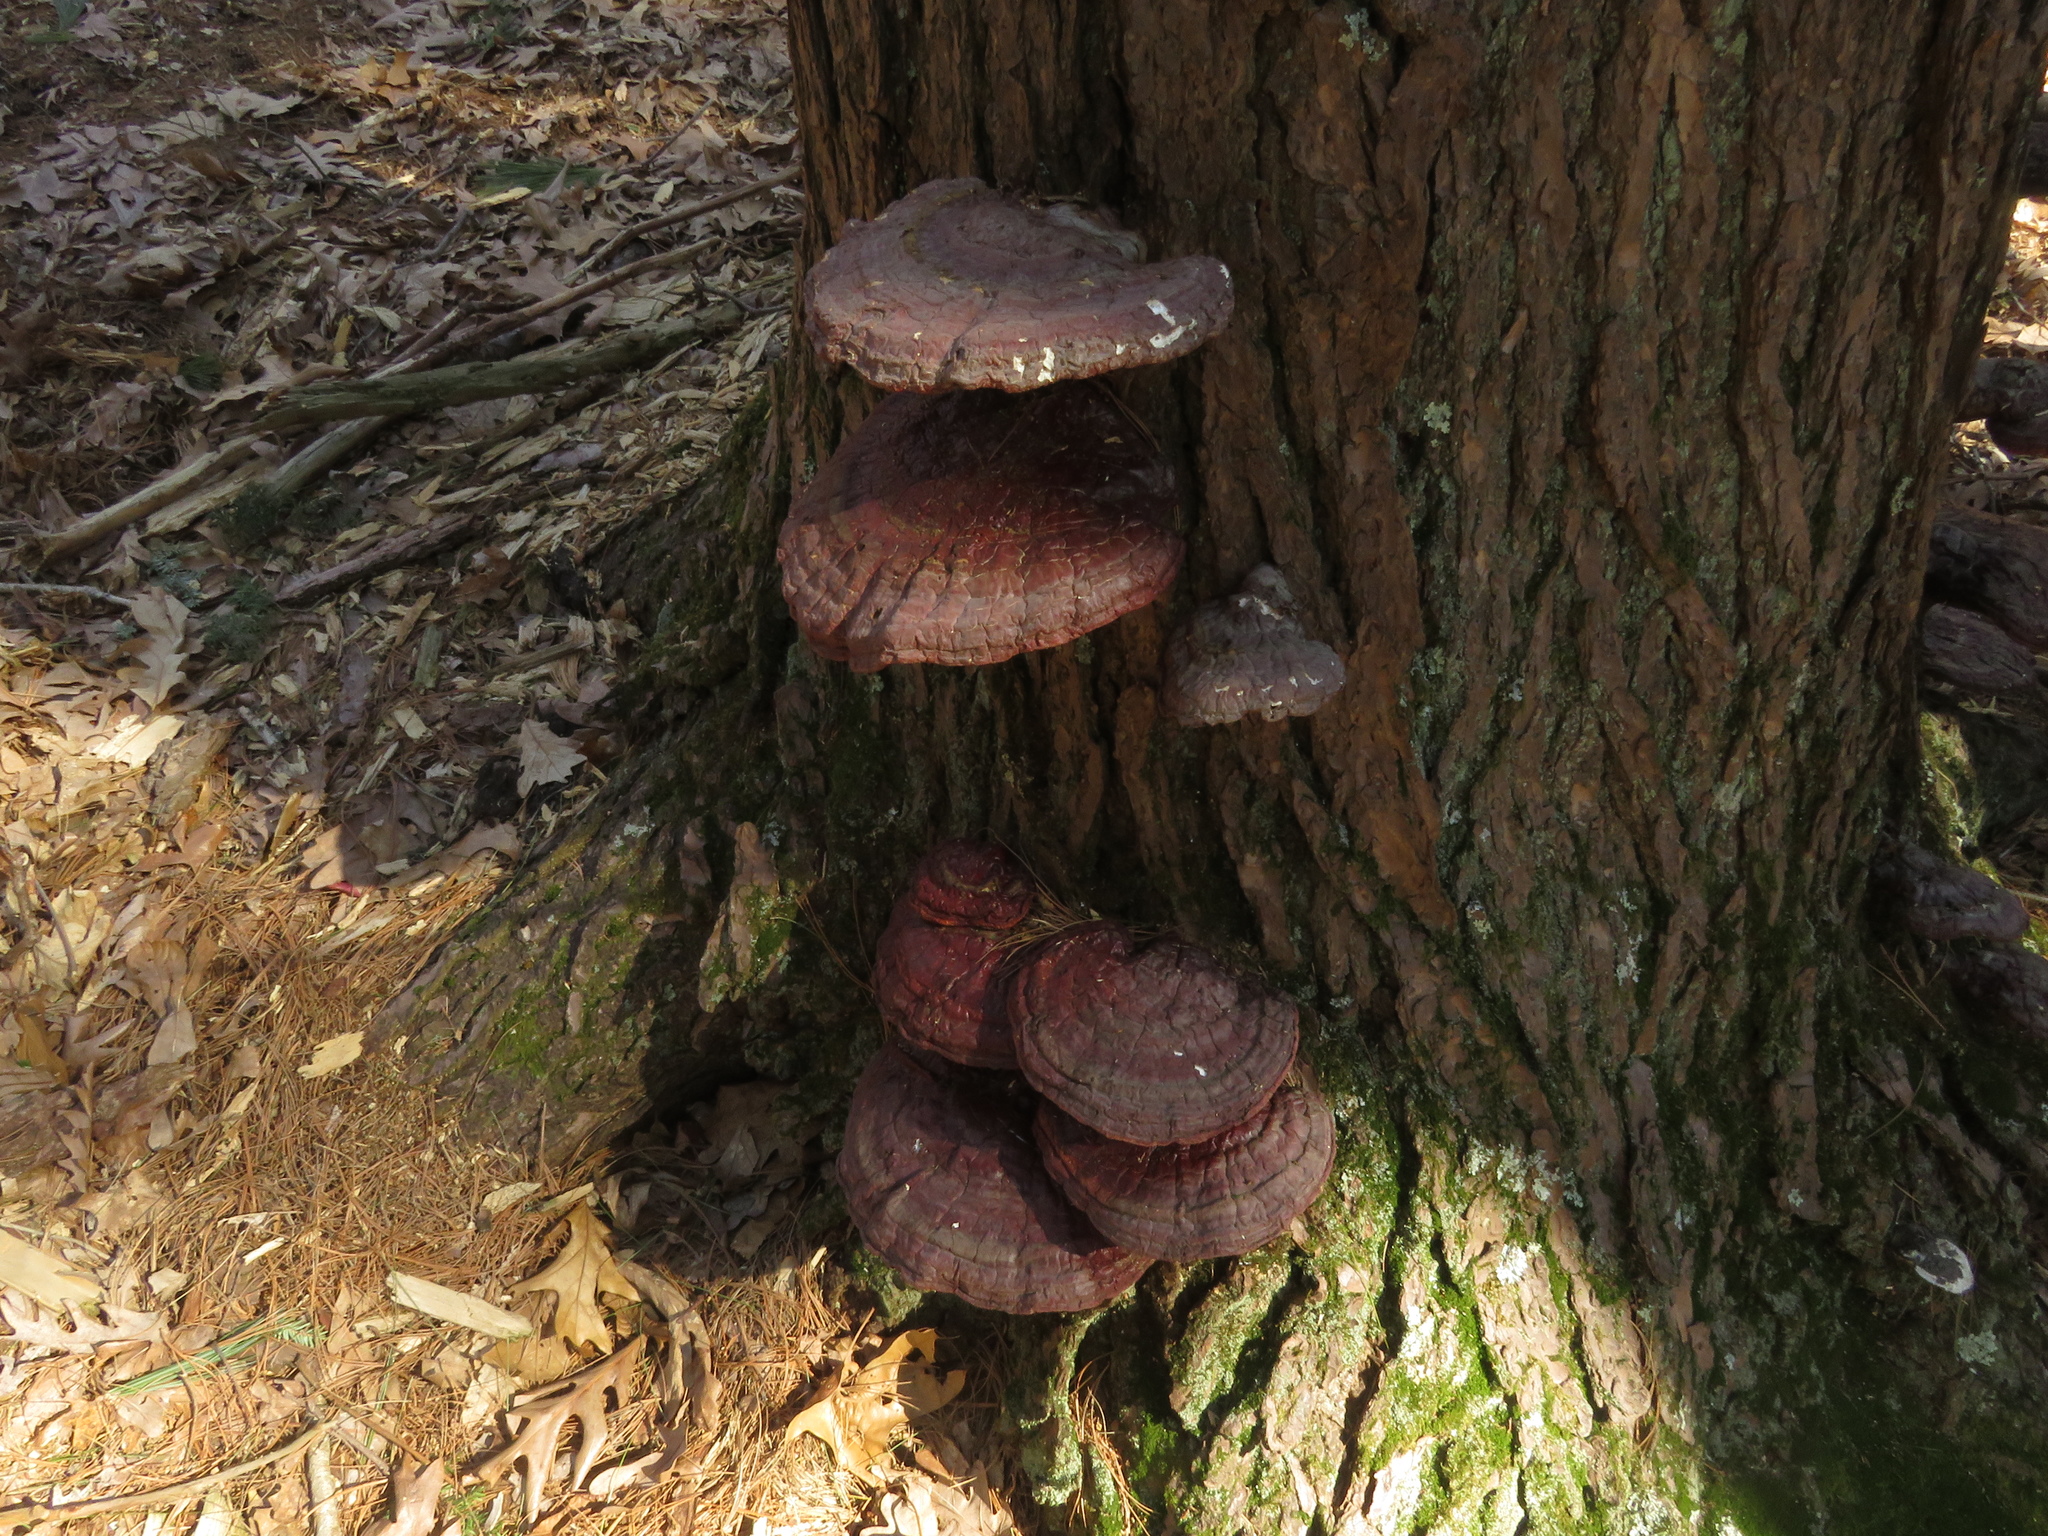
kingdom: Fungi
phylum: Basidiomycota
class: Agaricomycetes
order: Polyporales
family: Polyporaceae
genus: Ganoderma
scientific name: Ganoderma tsugae
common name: Hemlock varnish shelf
